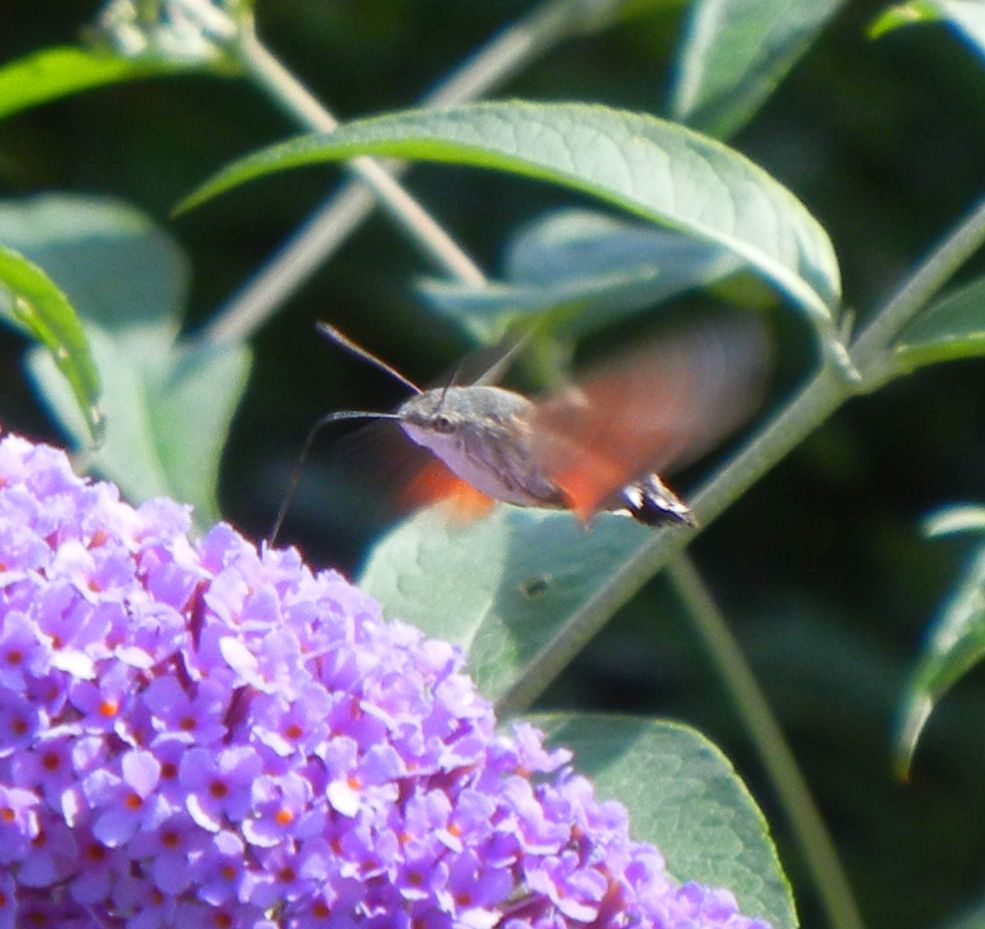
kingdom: Animalia
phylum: Arthropoda
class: Insecta
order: Lepidoptera
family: Sphingidae
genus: Macroglossum
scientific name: Macroglossum stellatarum
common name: Humming-bird hawk-moth
